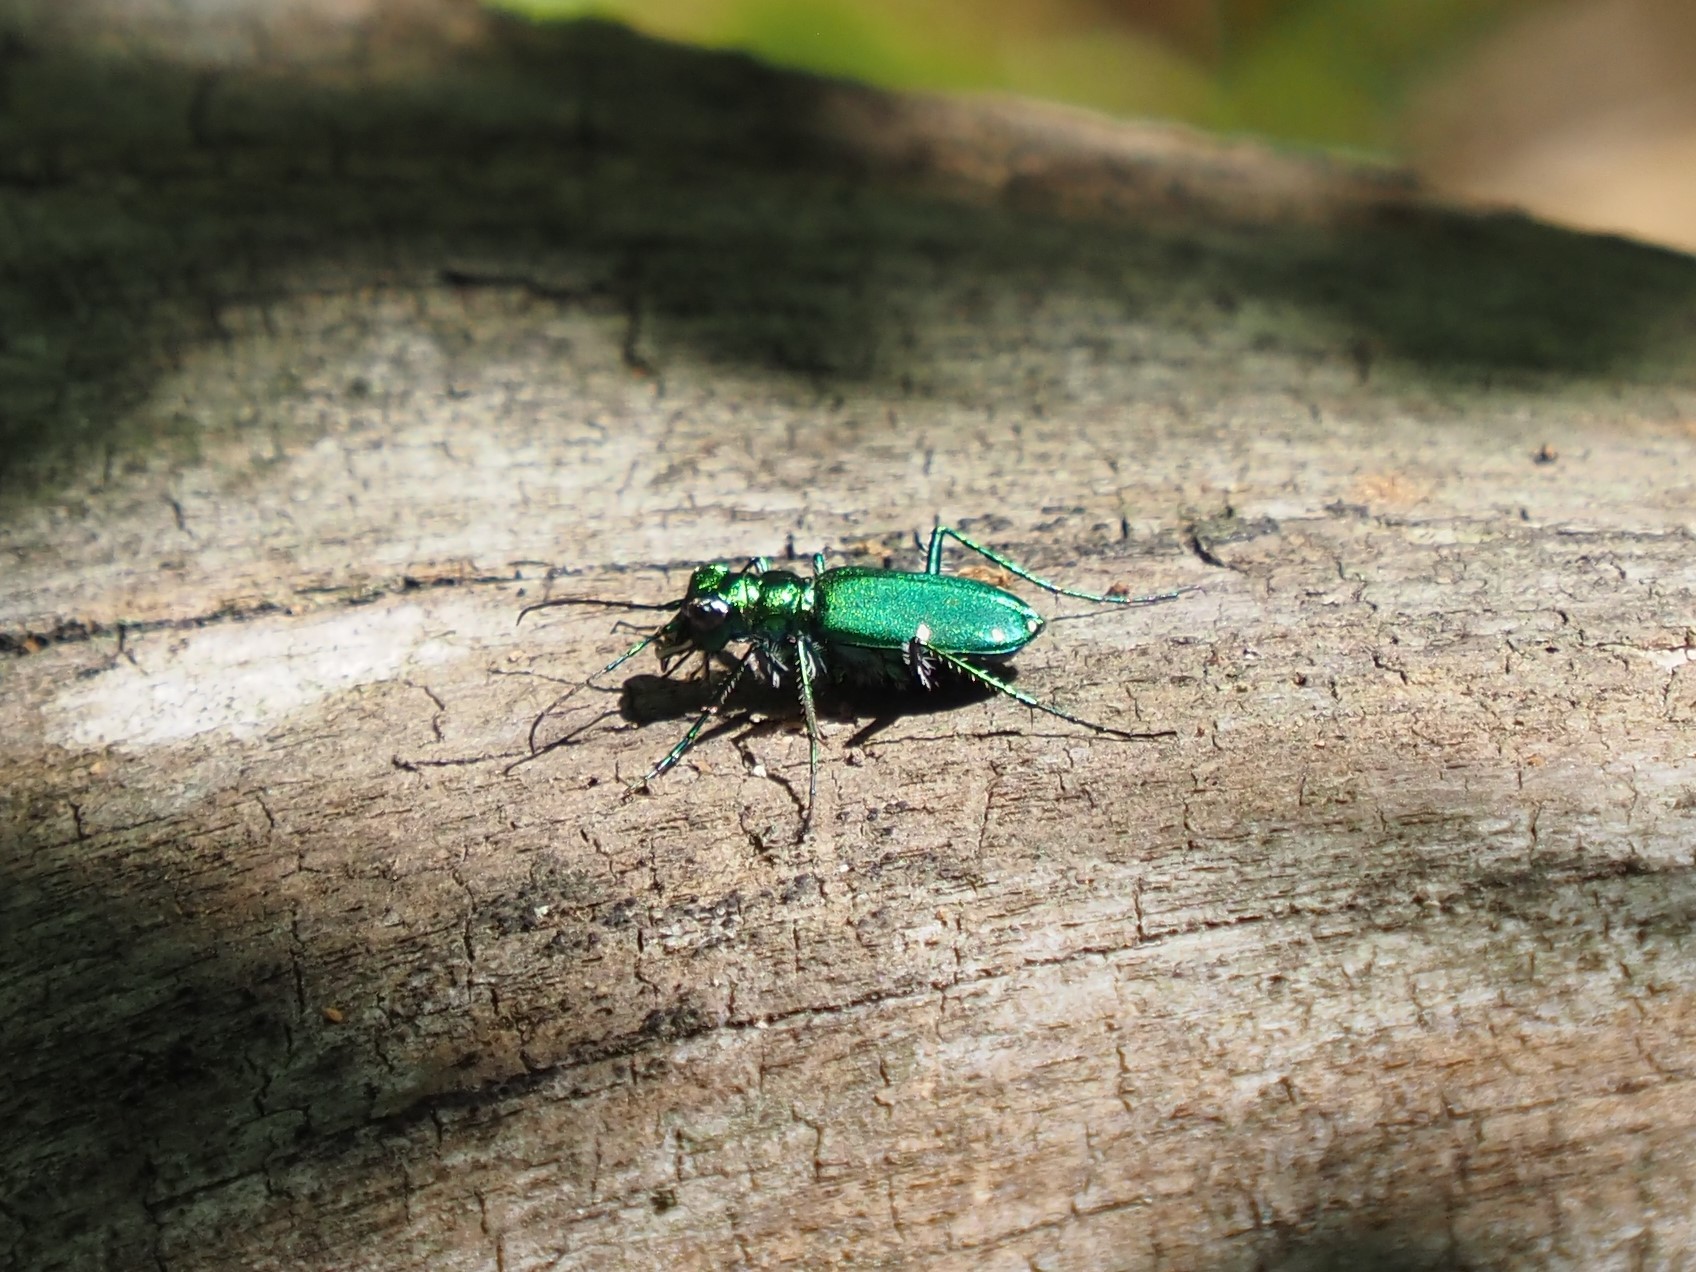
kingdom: Animalia
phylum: Arthropoda
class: Insecta
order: Coleoptera
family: Carabidae
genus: Cicindela
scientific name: Cicindela sexguttata
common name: Six-spotted tiger beetle
